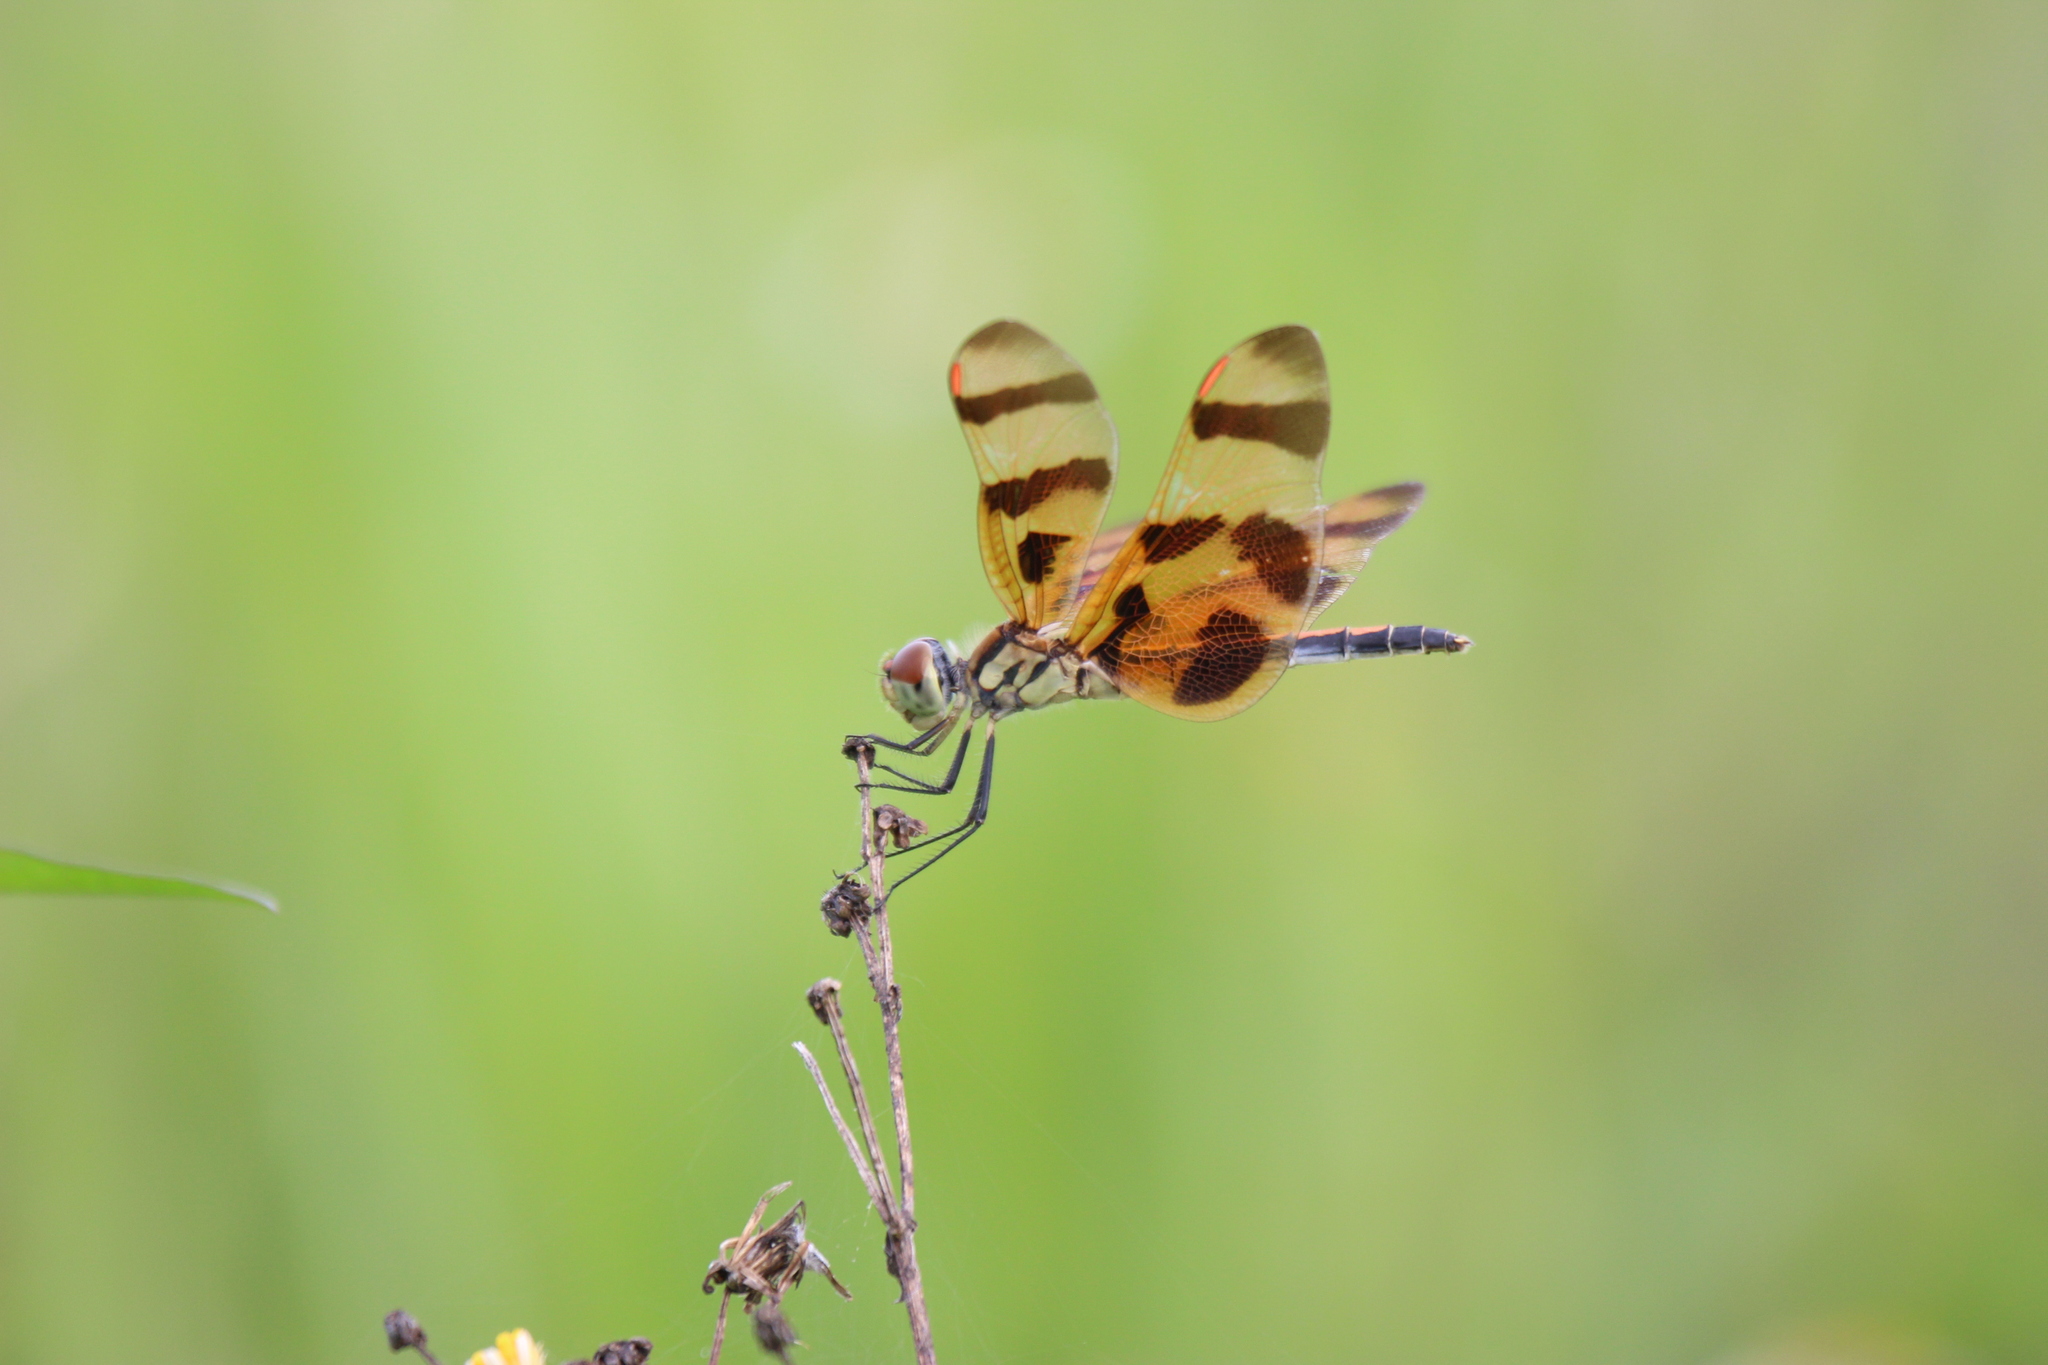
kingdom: Animalia
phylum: Arthropoda
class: Insecta
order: Odonata
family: Libellulidae
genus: Celithemis
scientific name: Celithemis eponina
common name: Halloween pennant
